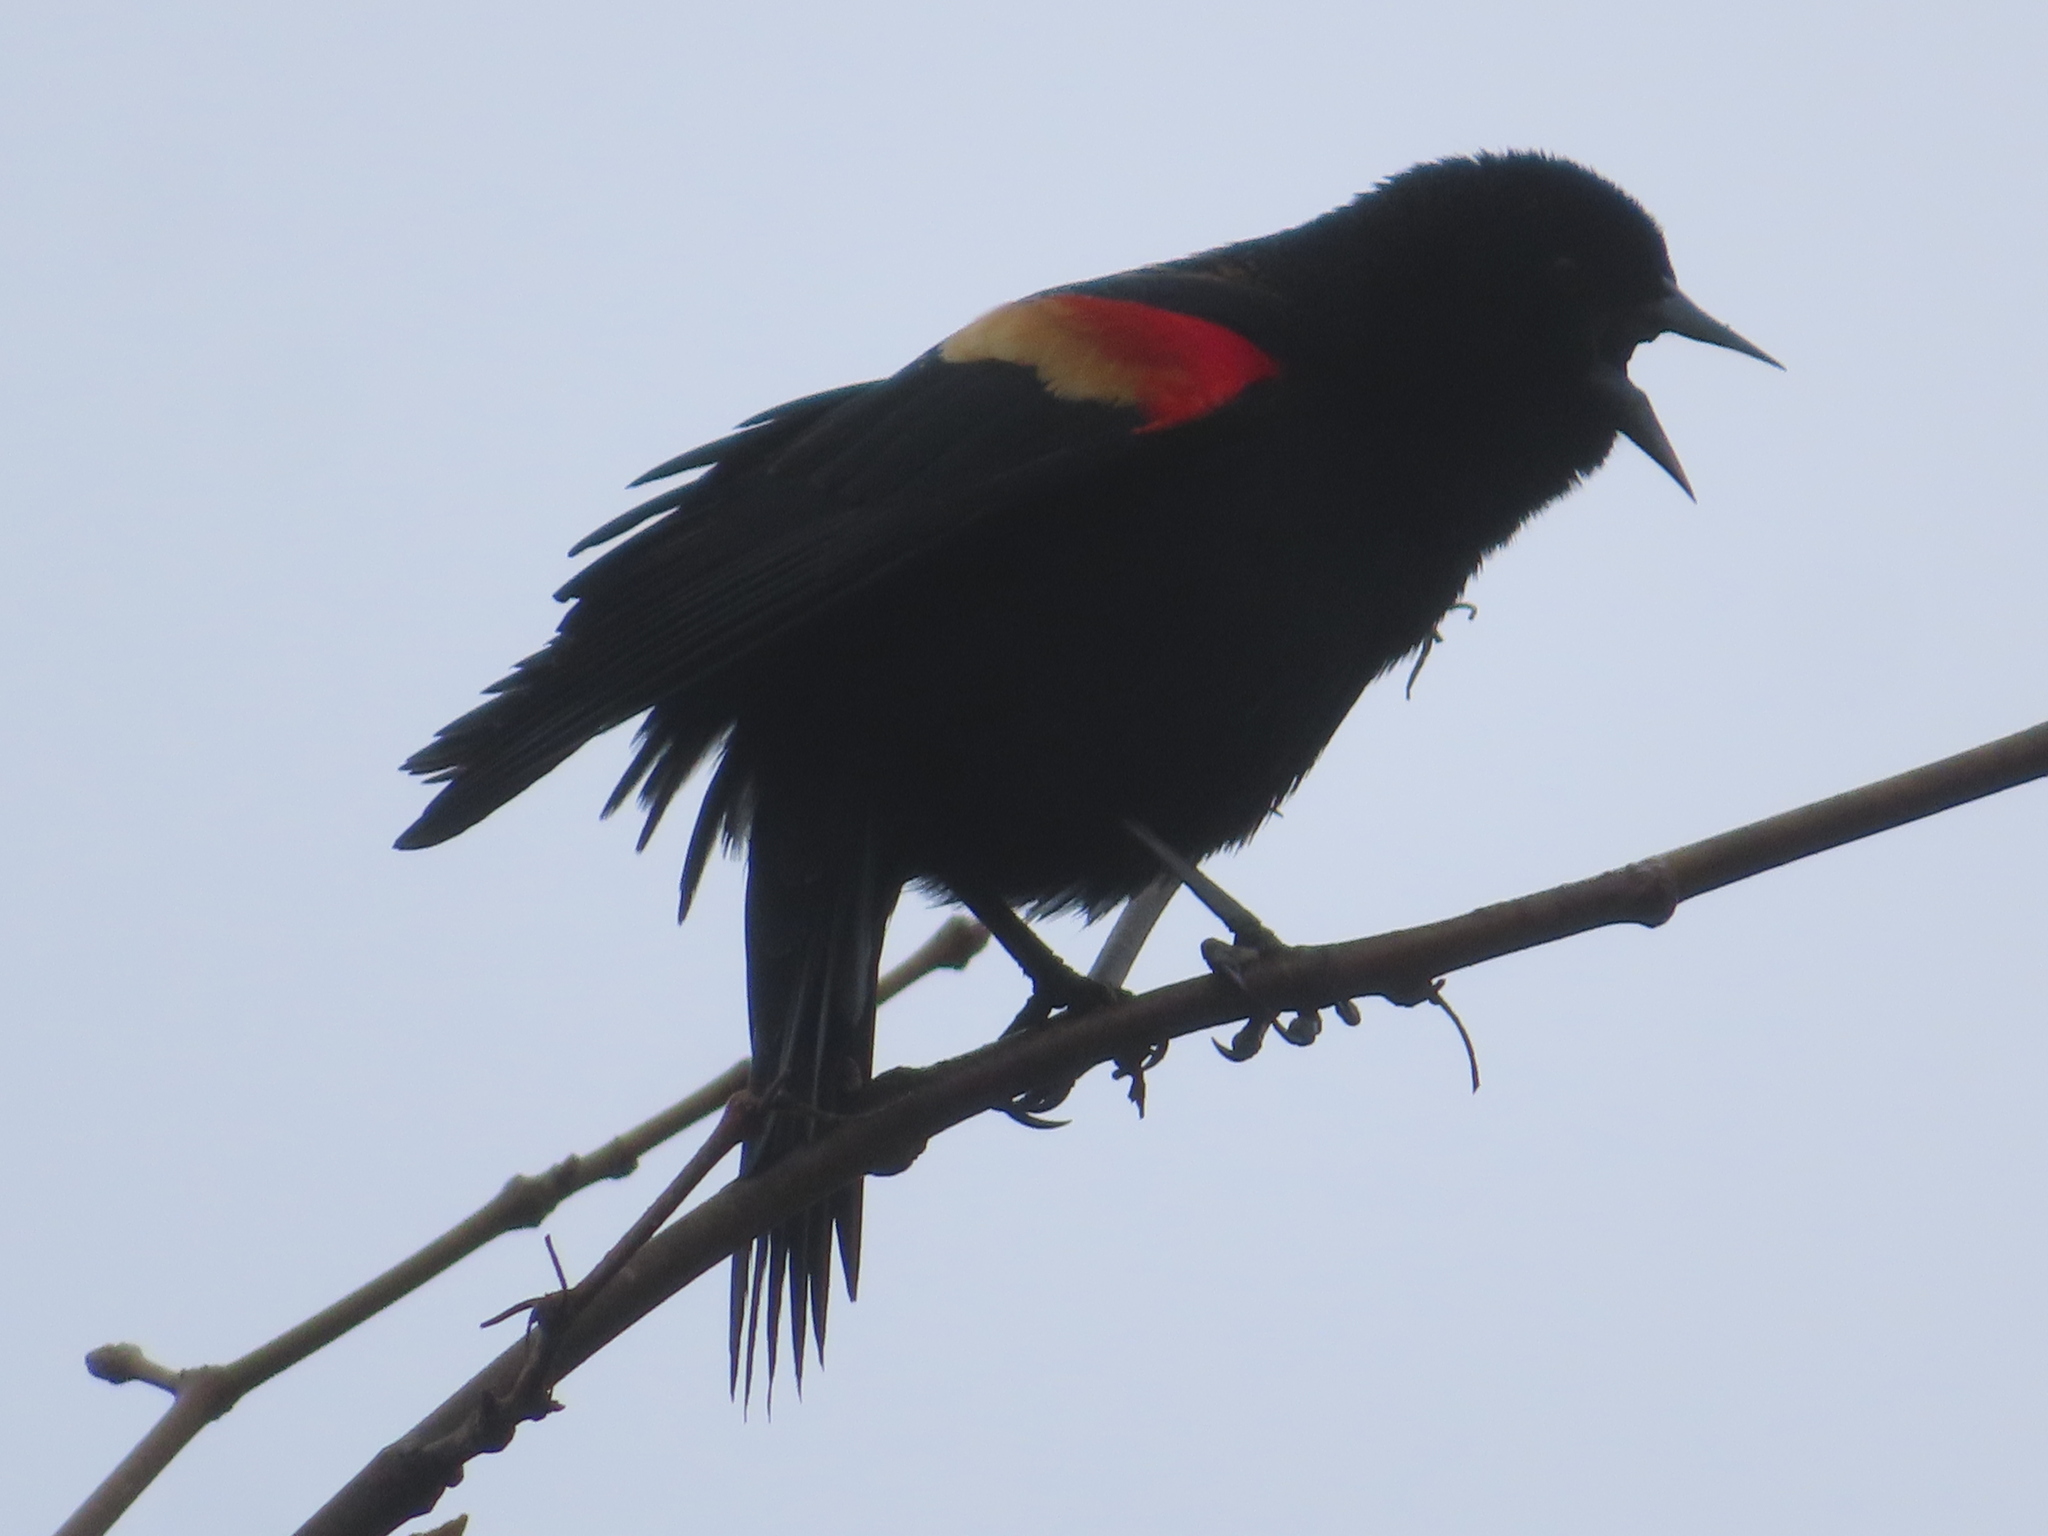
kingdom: Animalia
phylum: Chordata
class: Aves
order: Passeriformes
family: Icteridae
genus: Agelaius
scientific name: Agelaius phoeniceus
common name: Red-winged blackbird
